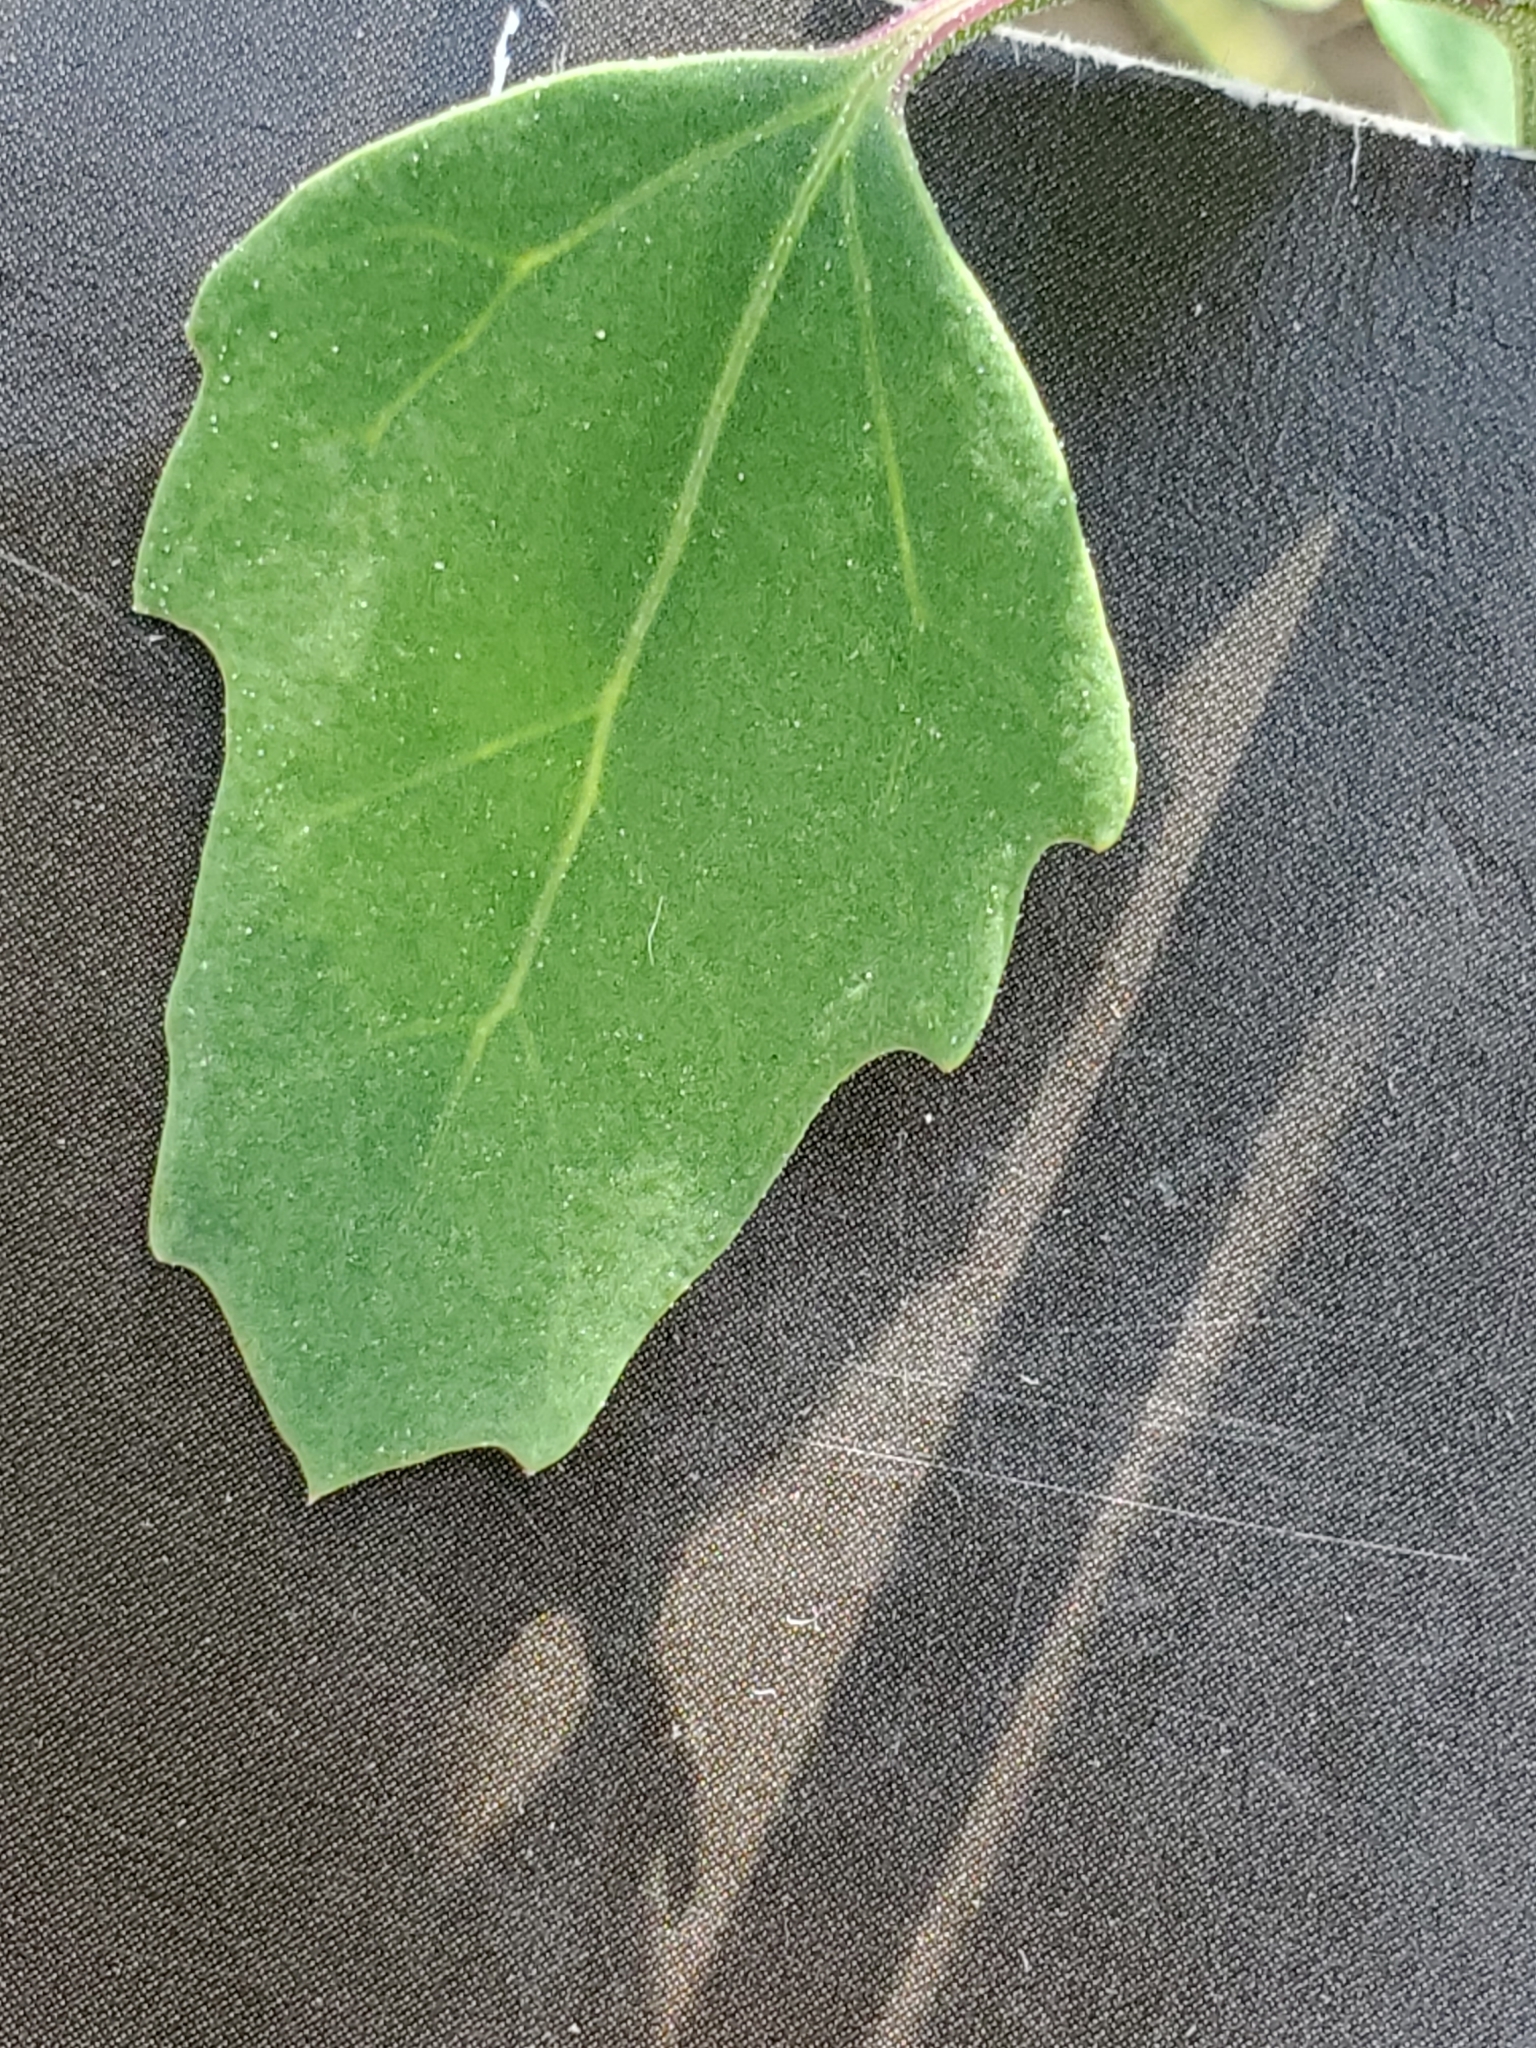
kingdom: Plantae
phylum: Tracheophyta
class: Magnoliopsida
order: Caryophyllales
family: Amaranthaceae
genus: Chenopodium
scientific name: Chenopodium album
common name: Fat-hen
